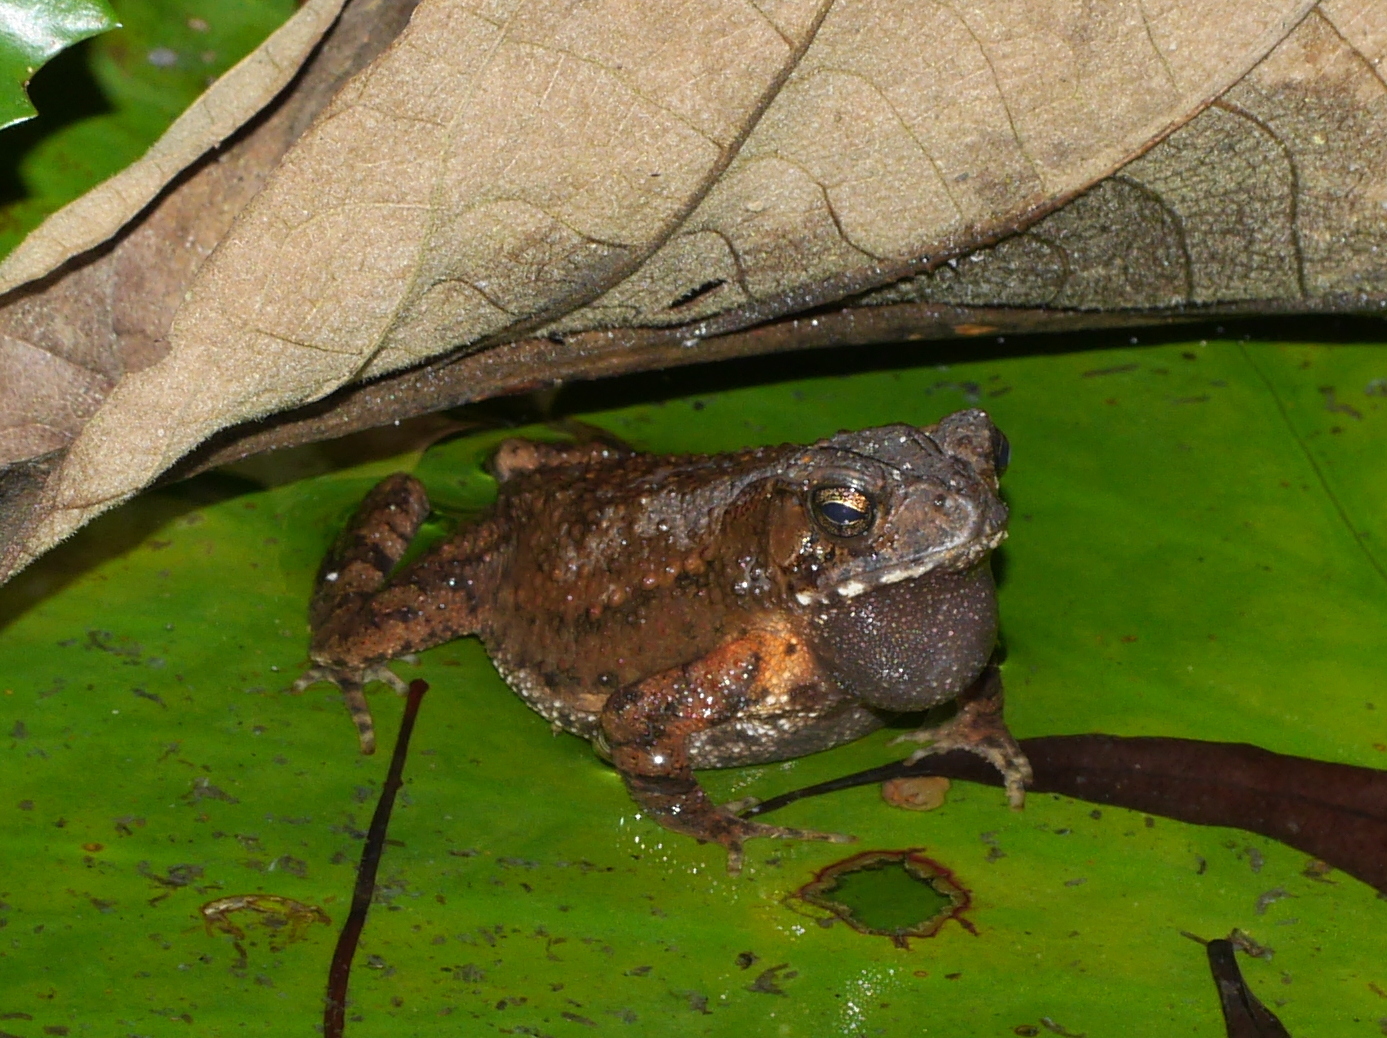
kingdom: Animalia
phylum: Chordata
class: Amphibia
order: Anura
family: Bufonidae
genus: Ingerophrynus
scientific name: Ingerophrynus biporcatus
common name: Crested toad
